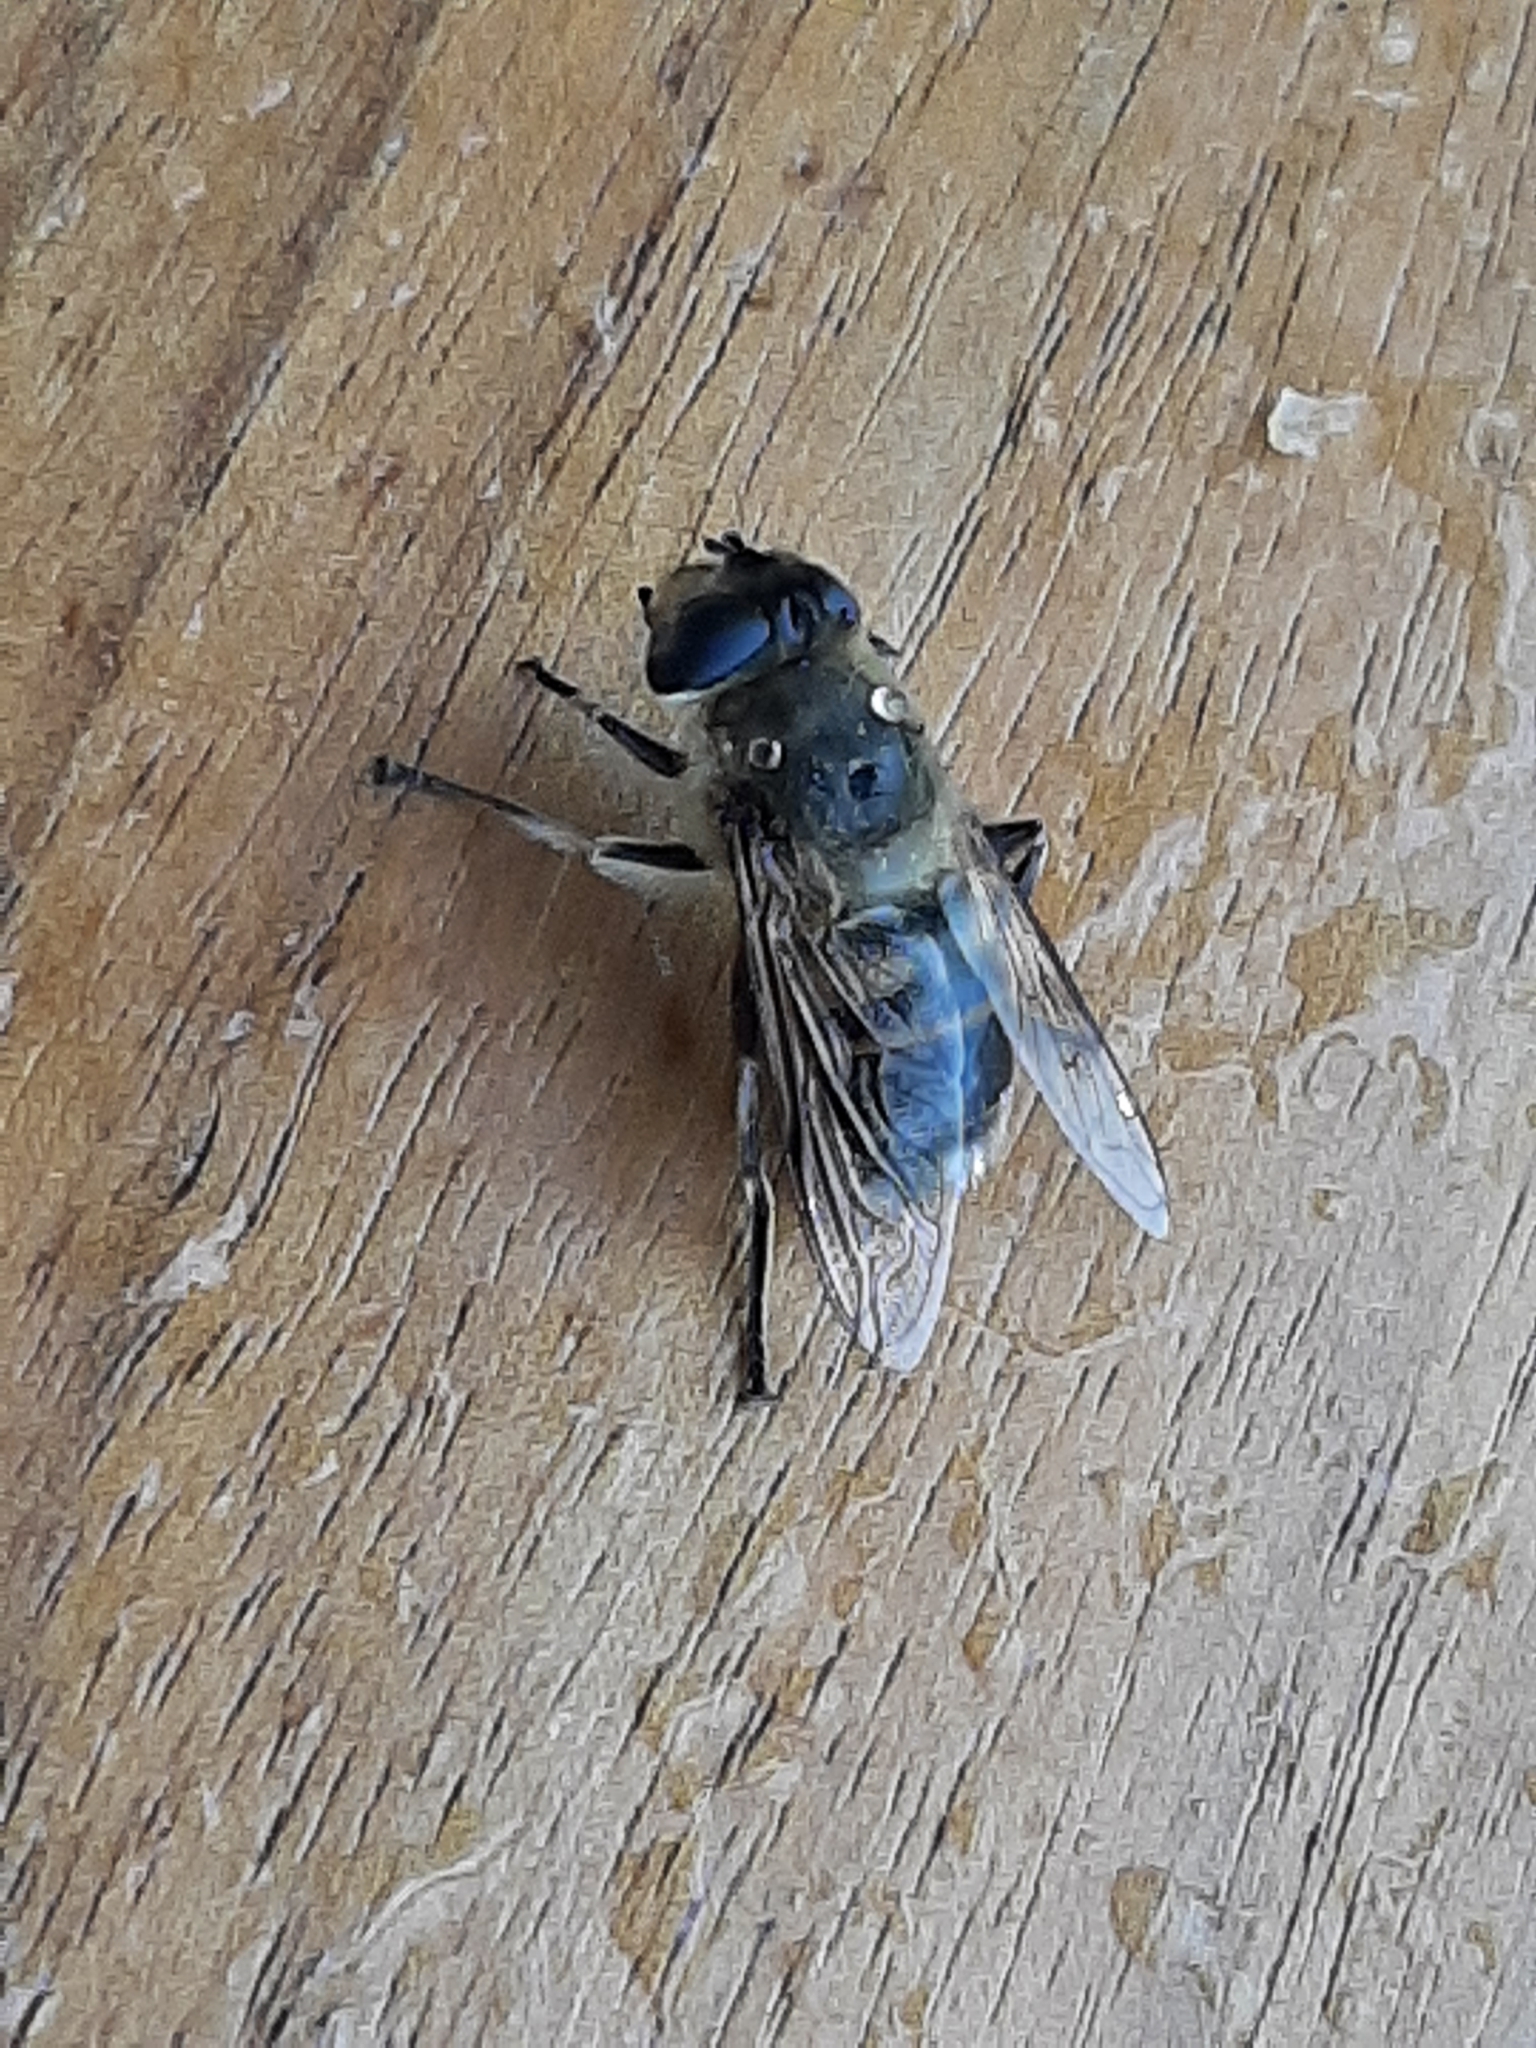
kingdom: Animalia
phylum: Arthropoda
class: Insecta
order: Diptera
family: Syrphidae
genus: Eristalis
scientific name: Eristalis tenax
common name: Drone fly
